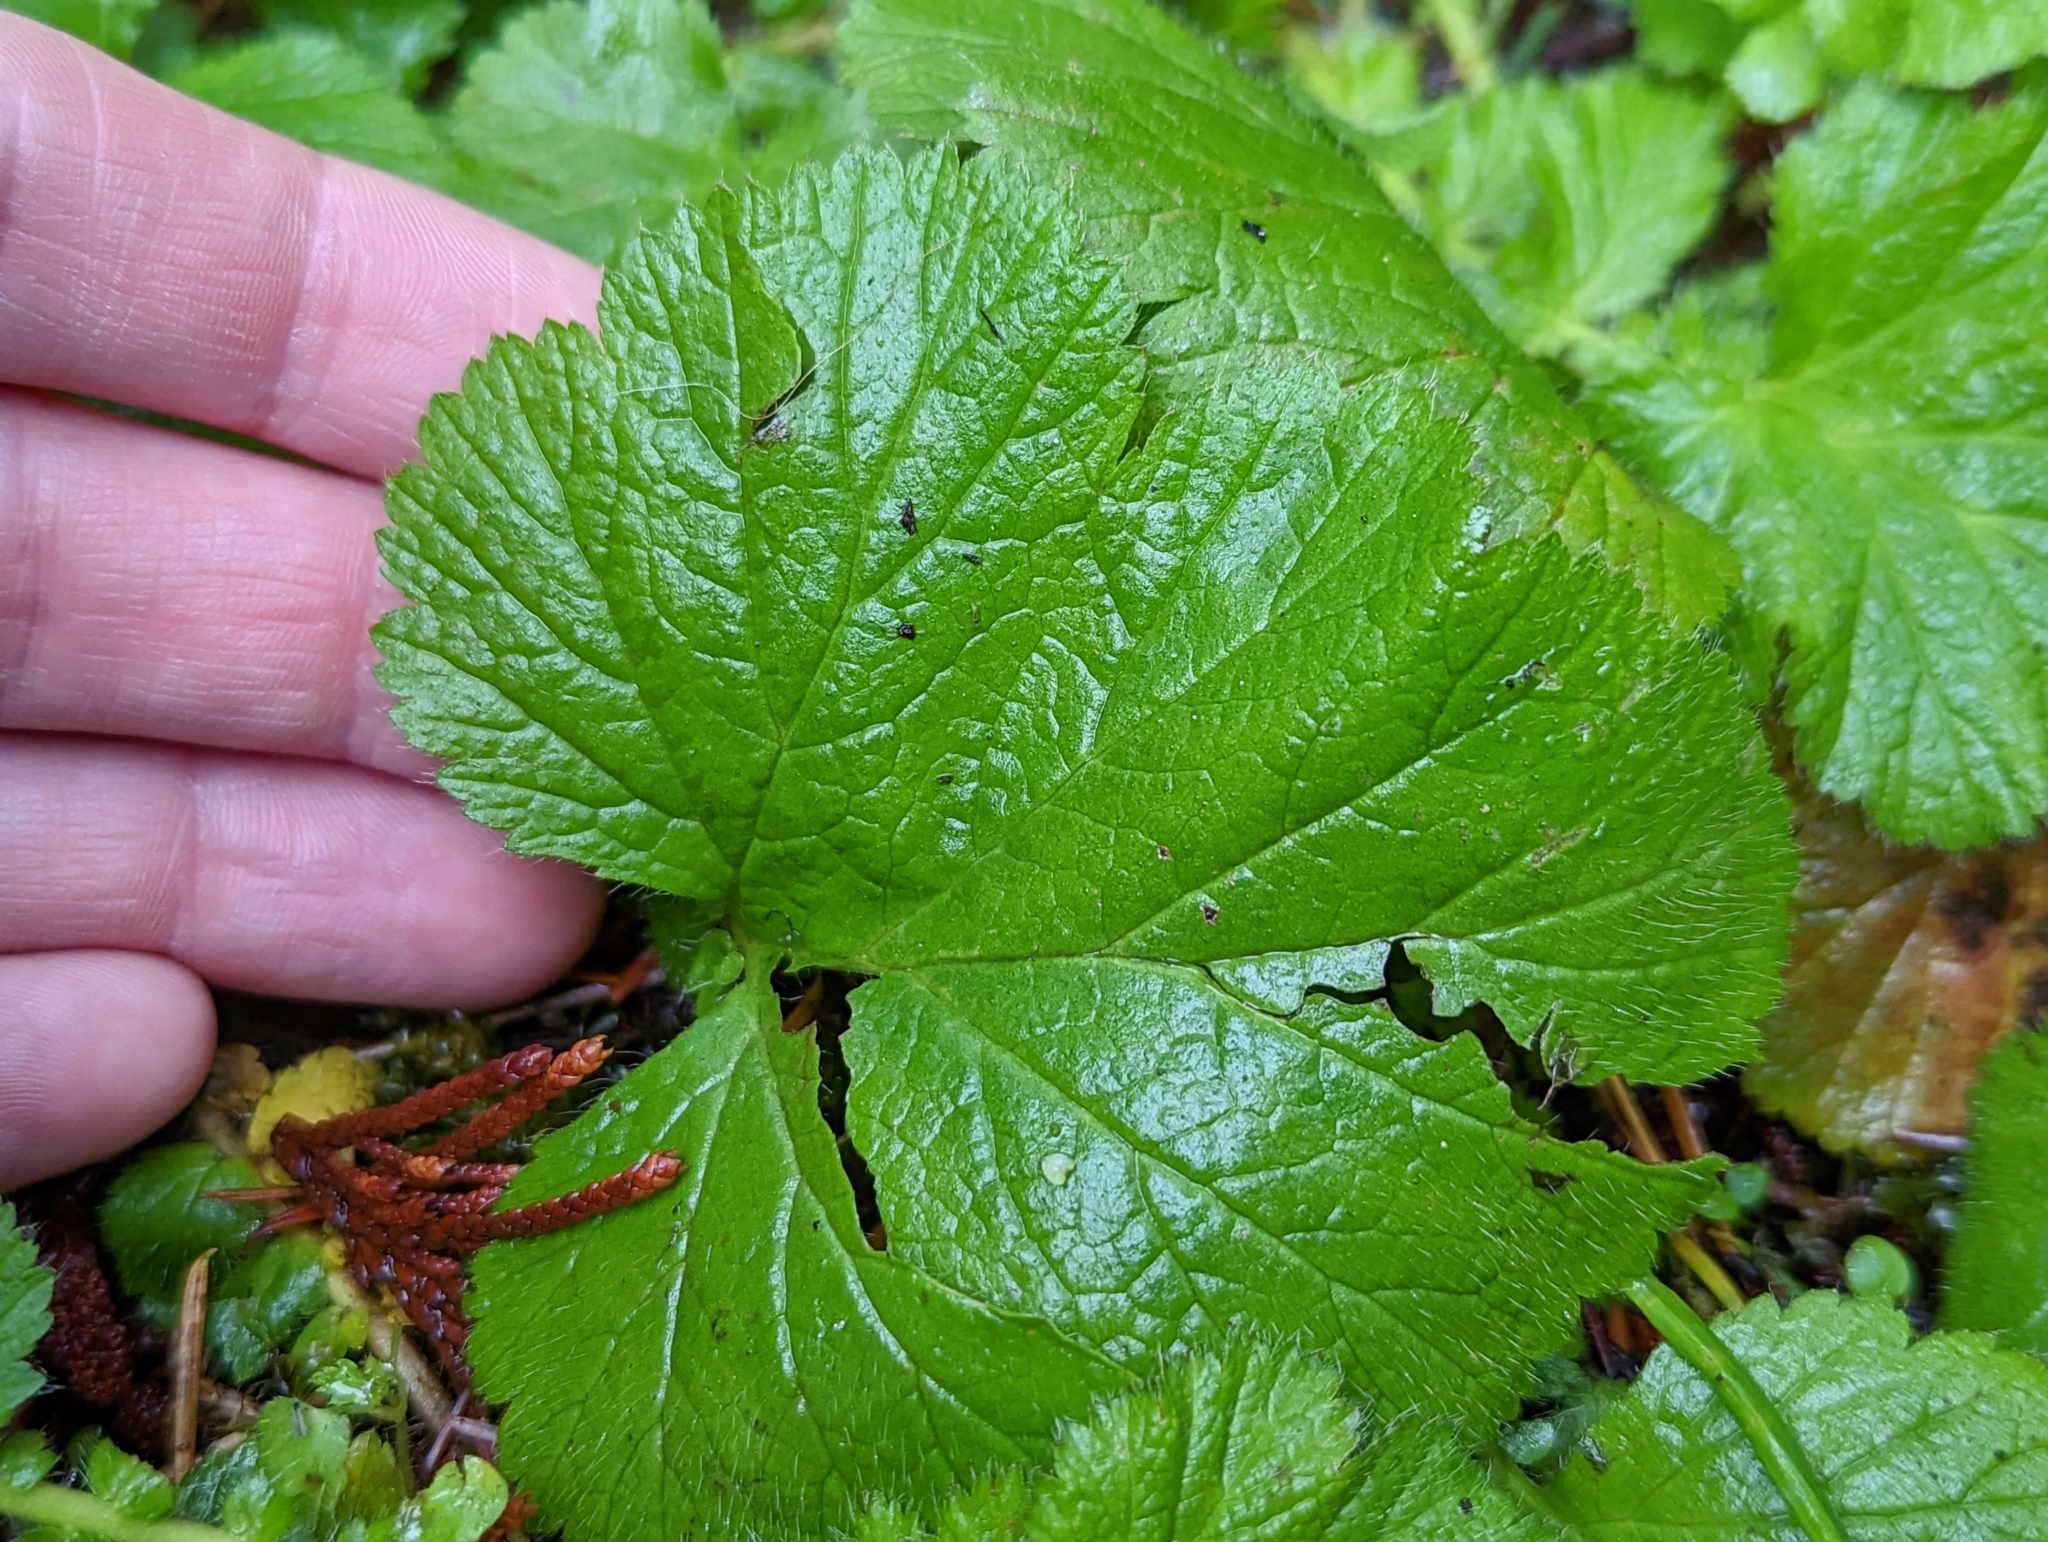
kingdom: Plantae
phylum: Tracheophyta
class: Magnoliopsida
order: Rosales
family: Rosaceae
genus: Geum
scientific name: Geum macrophyllum
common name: Large-leaved avens
